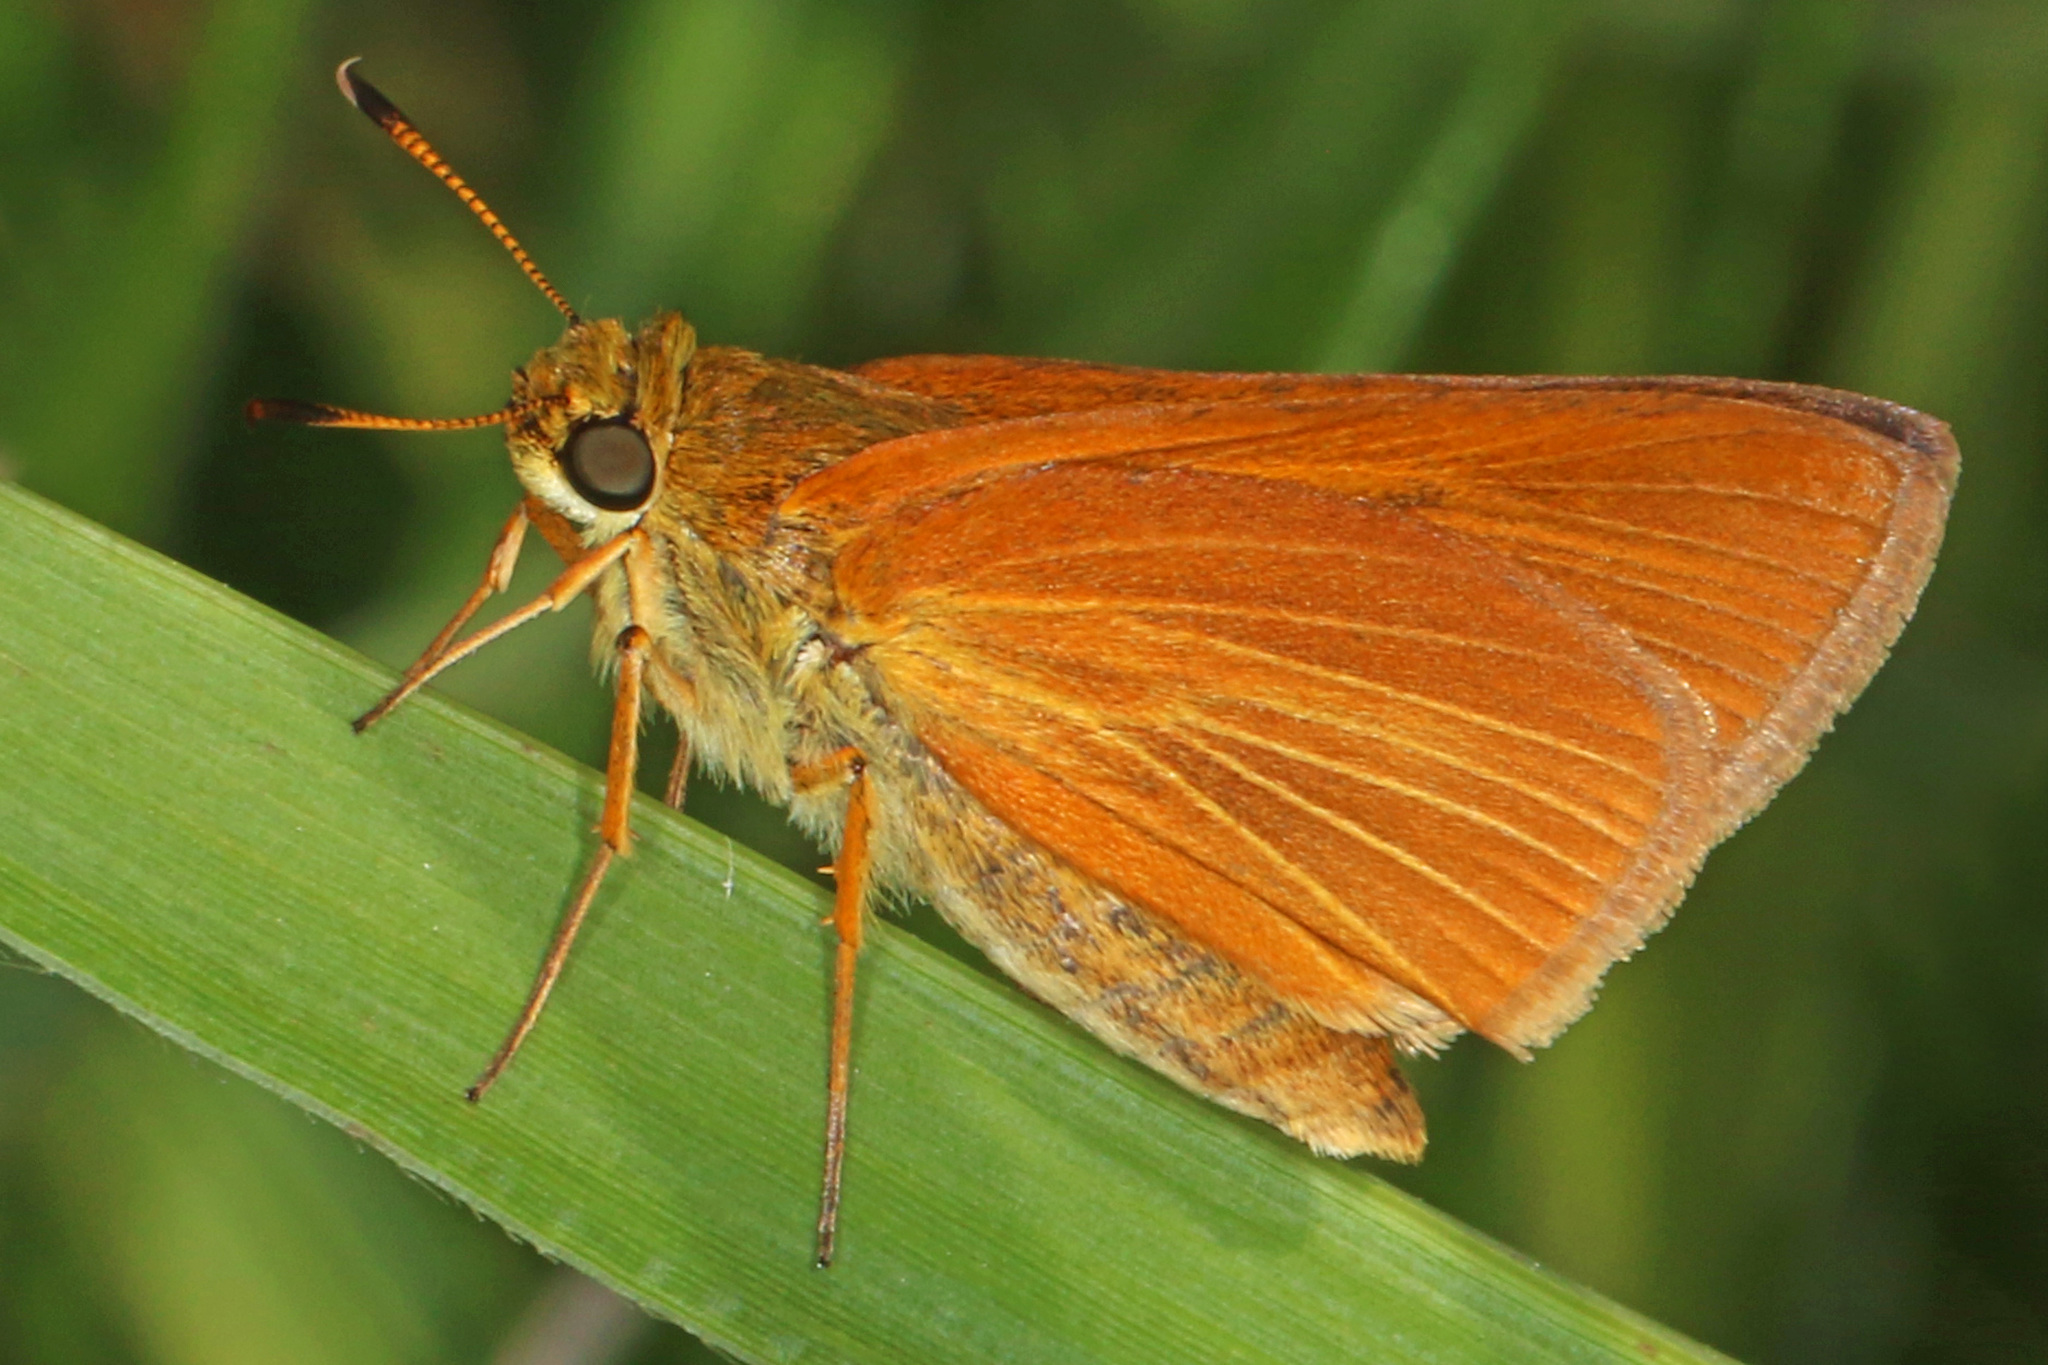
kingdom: Animalia
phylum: Arthropoda
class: Insecta
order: Lepidoptera
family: Hesperiidae
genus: Euphyes
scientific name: Euphyes dion
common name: Dion skipper
